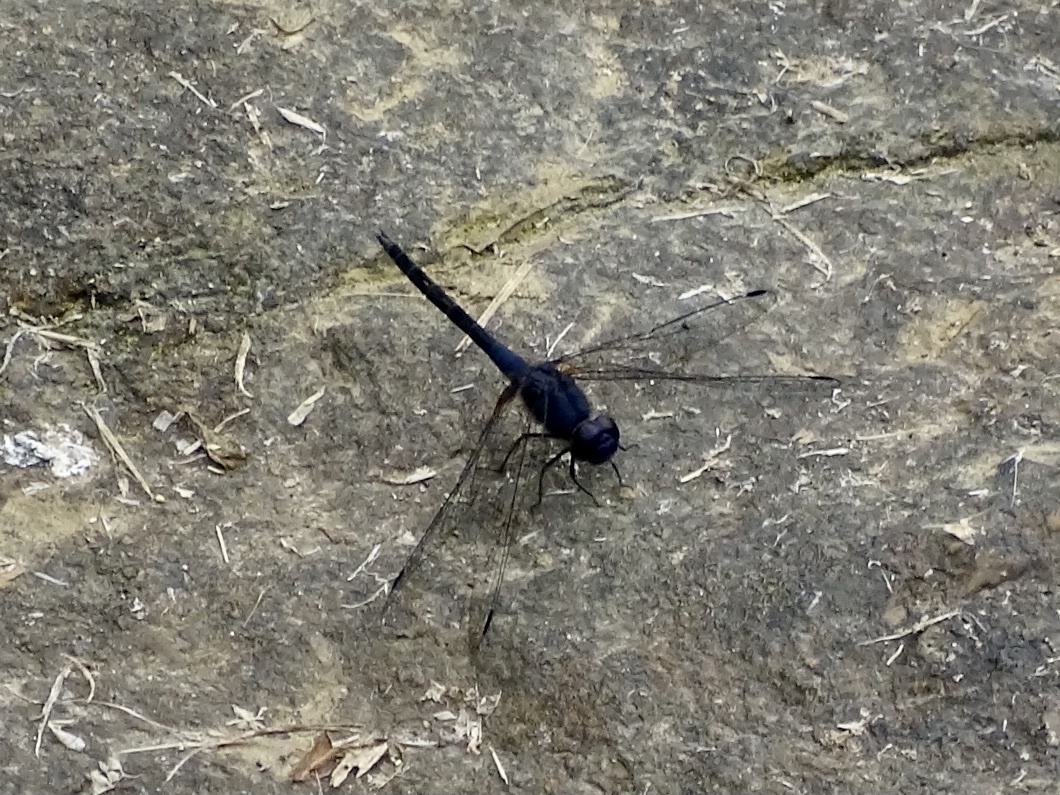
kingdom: Animalia
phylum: Arthropoda
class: Insecta
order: Odonata
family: Libellulidae
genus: Trithemis
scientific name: Trithemis festiva
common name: Indigo dropwing
